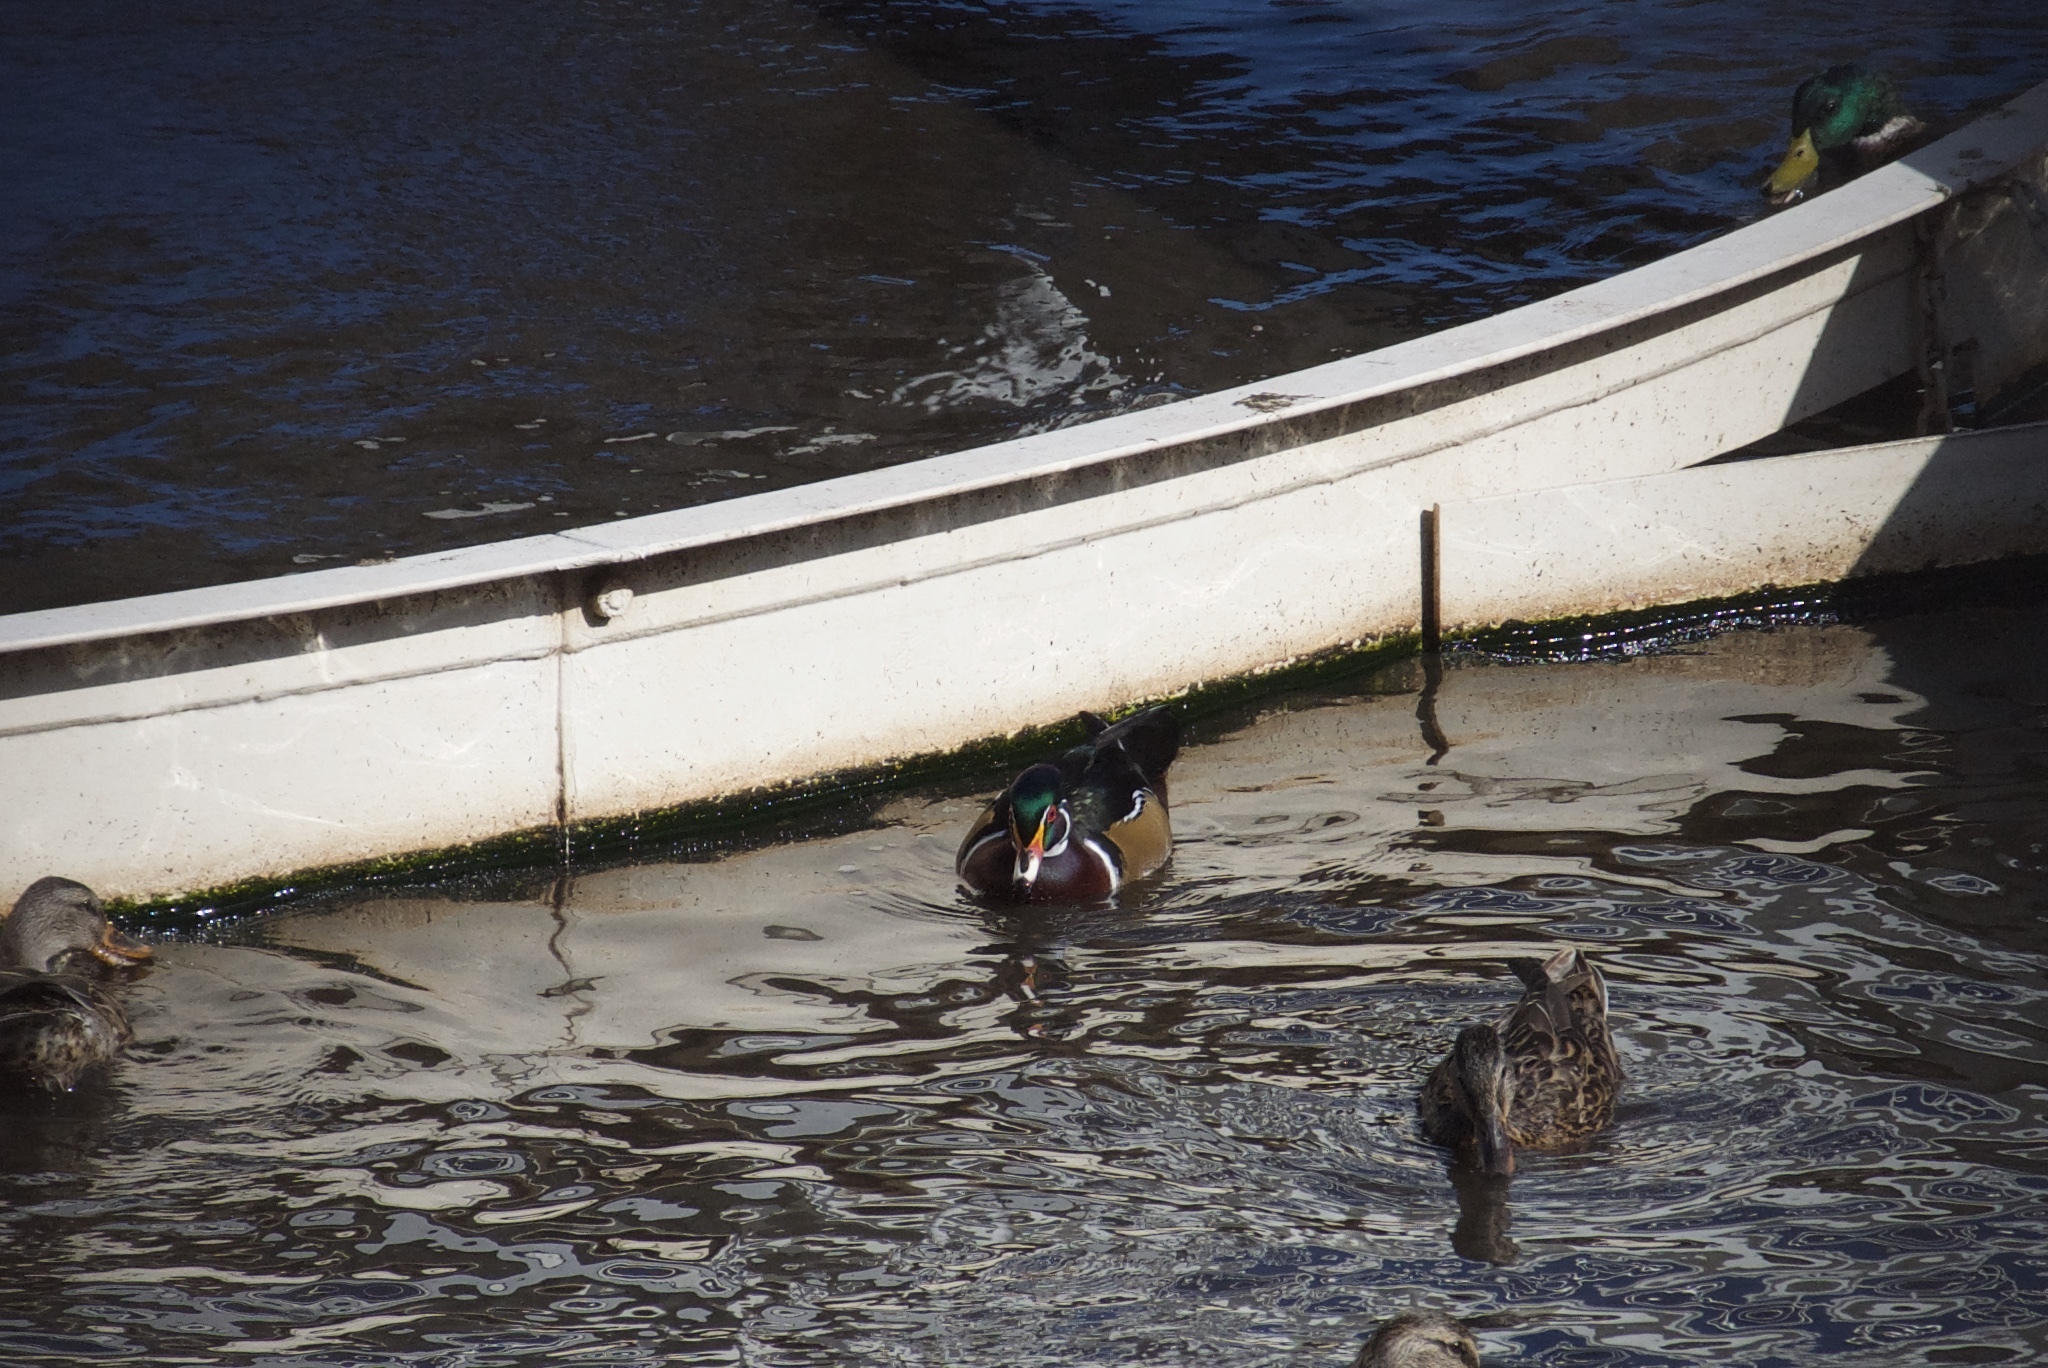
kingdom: Animalia
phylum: Chordata
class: Aves
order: Anseriformes
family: Anatidae
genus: Aix
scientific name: Aix sponsa
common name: Wood duck
